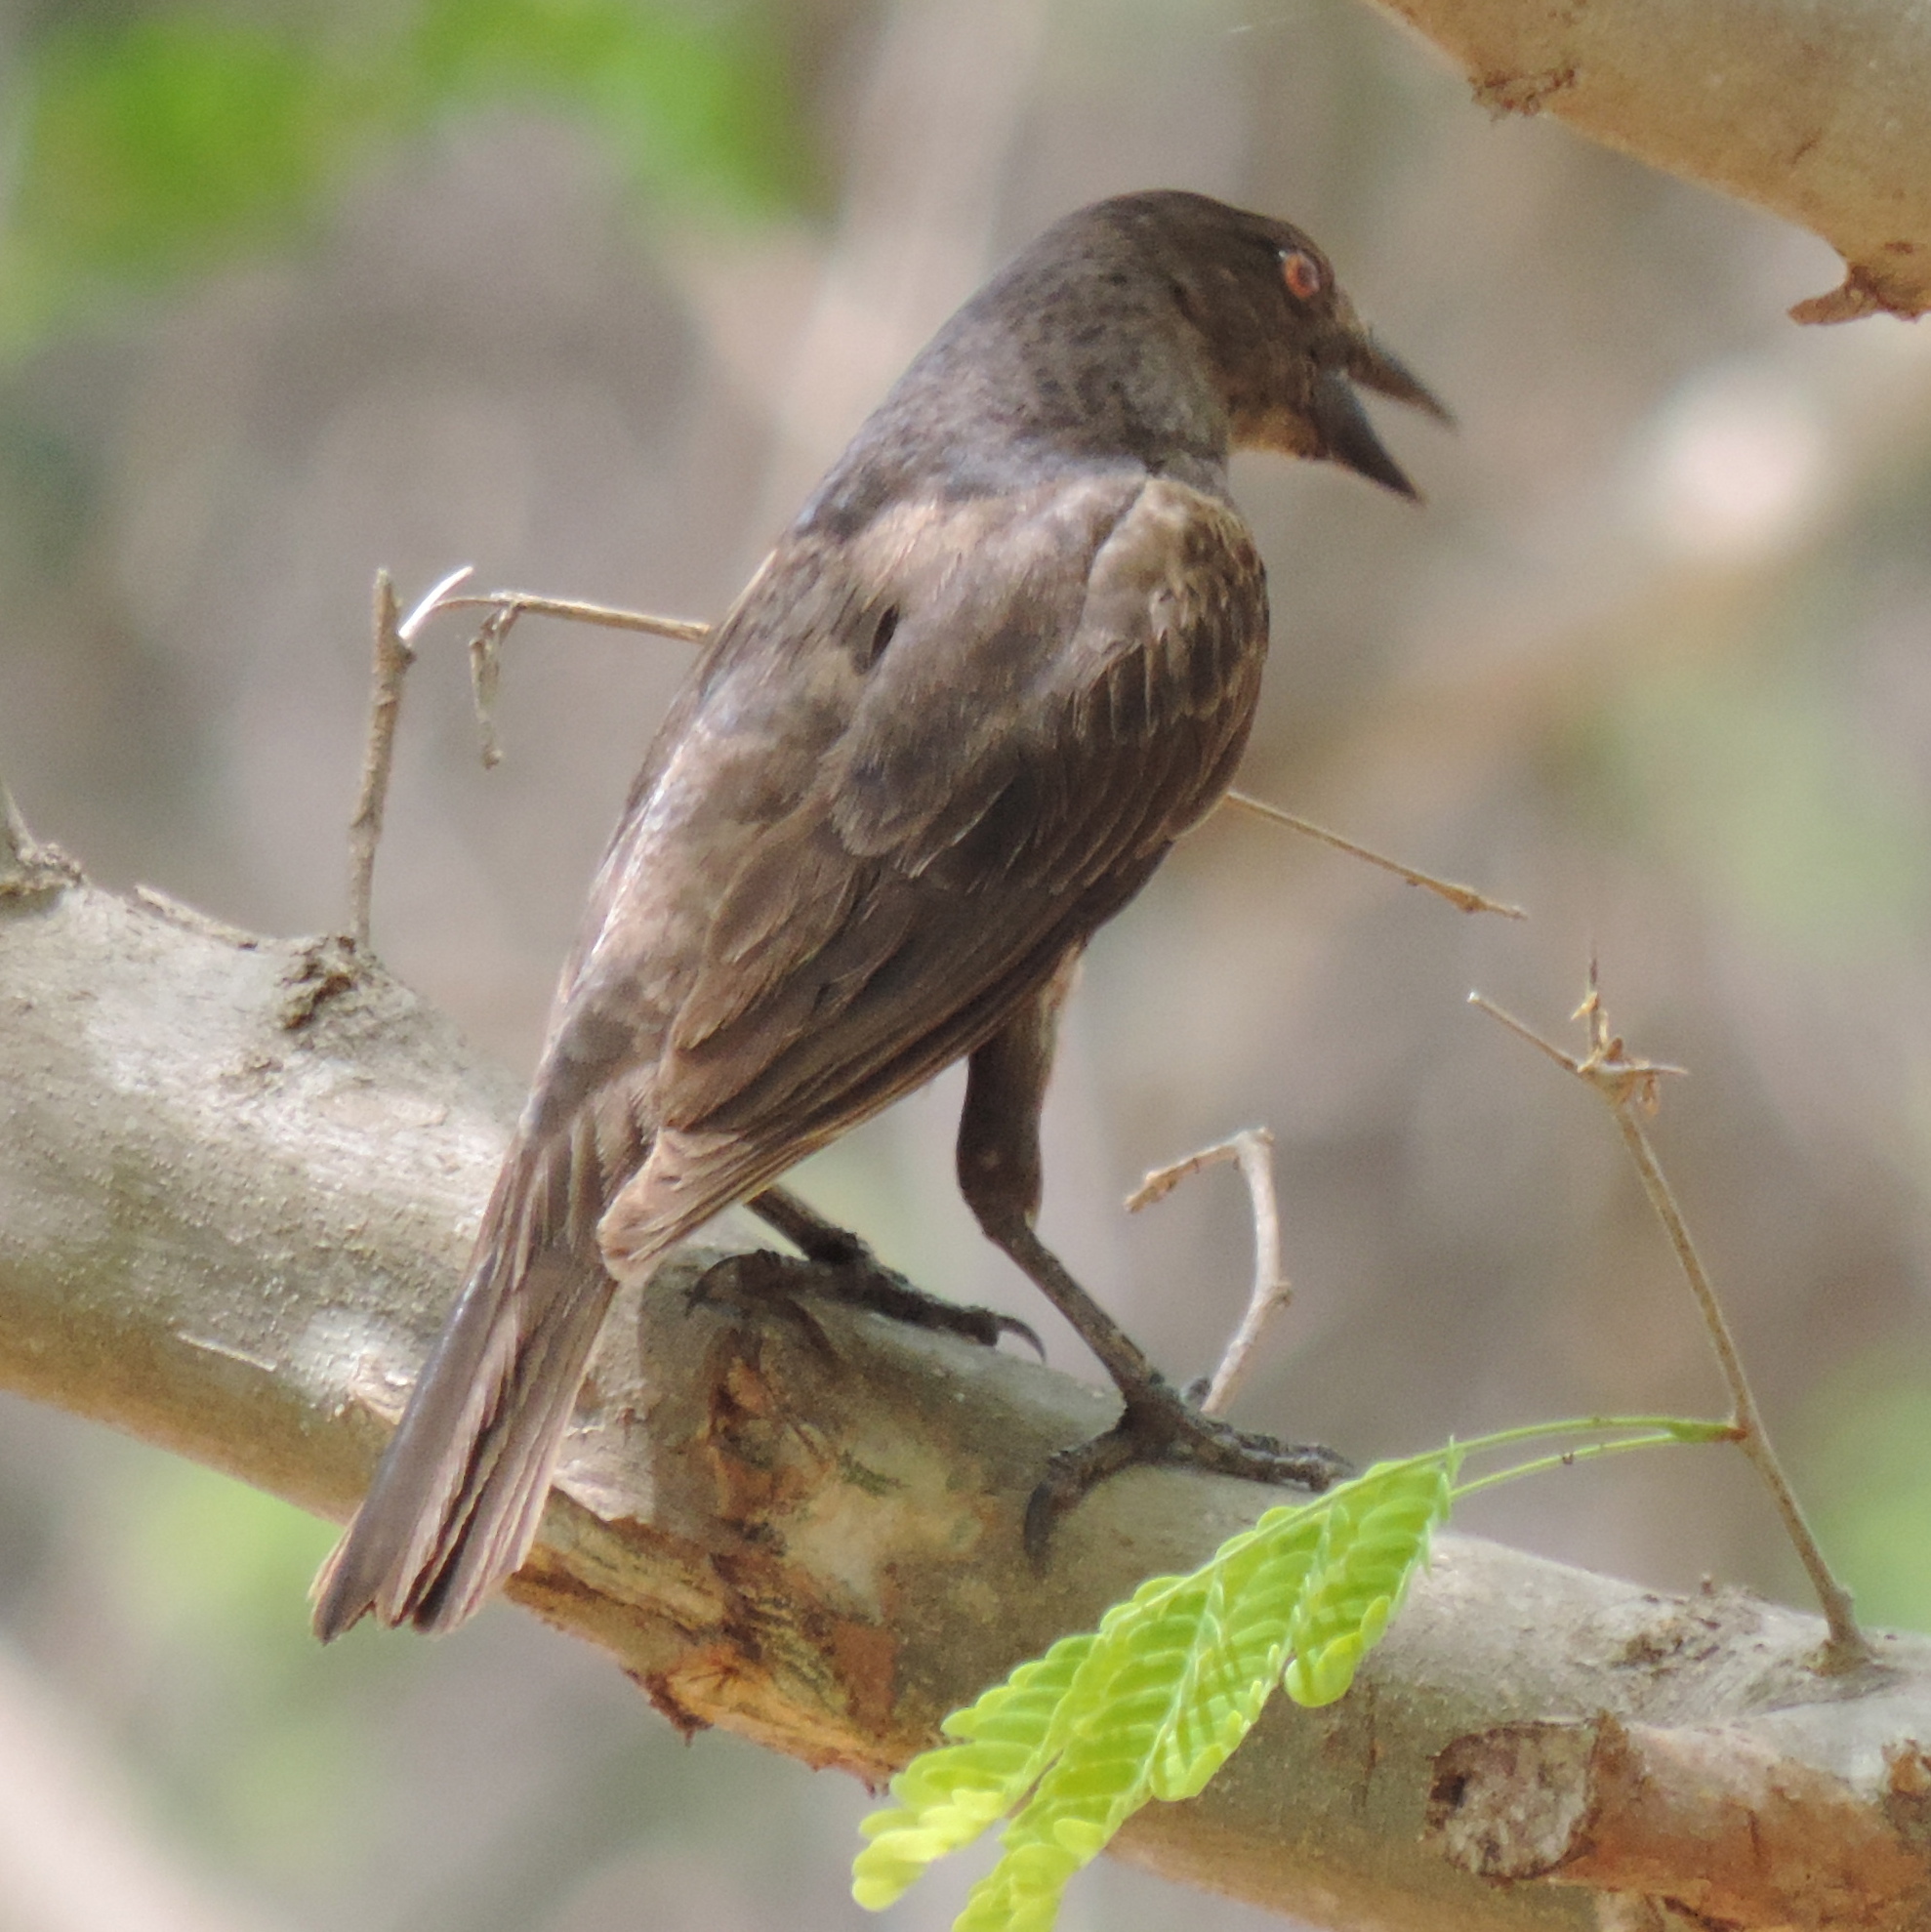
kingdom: Animalia
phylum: Chordata
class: Aves
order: Passeriformes
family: Icteridae
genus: Molothrus
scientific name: Molothrus aeneus
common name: Bronzed cowbird
